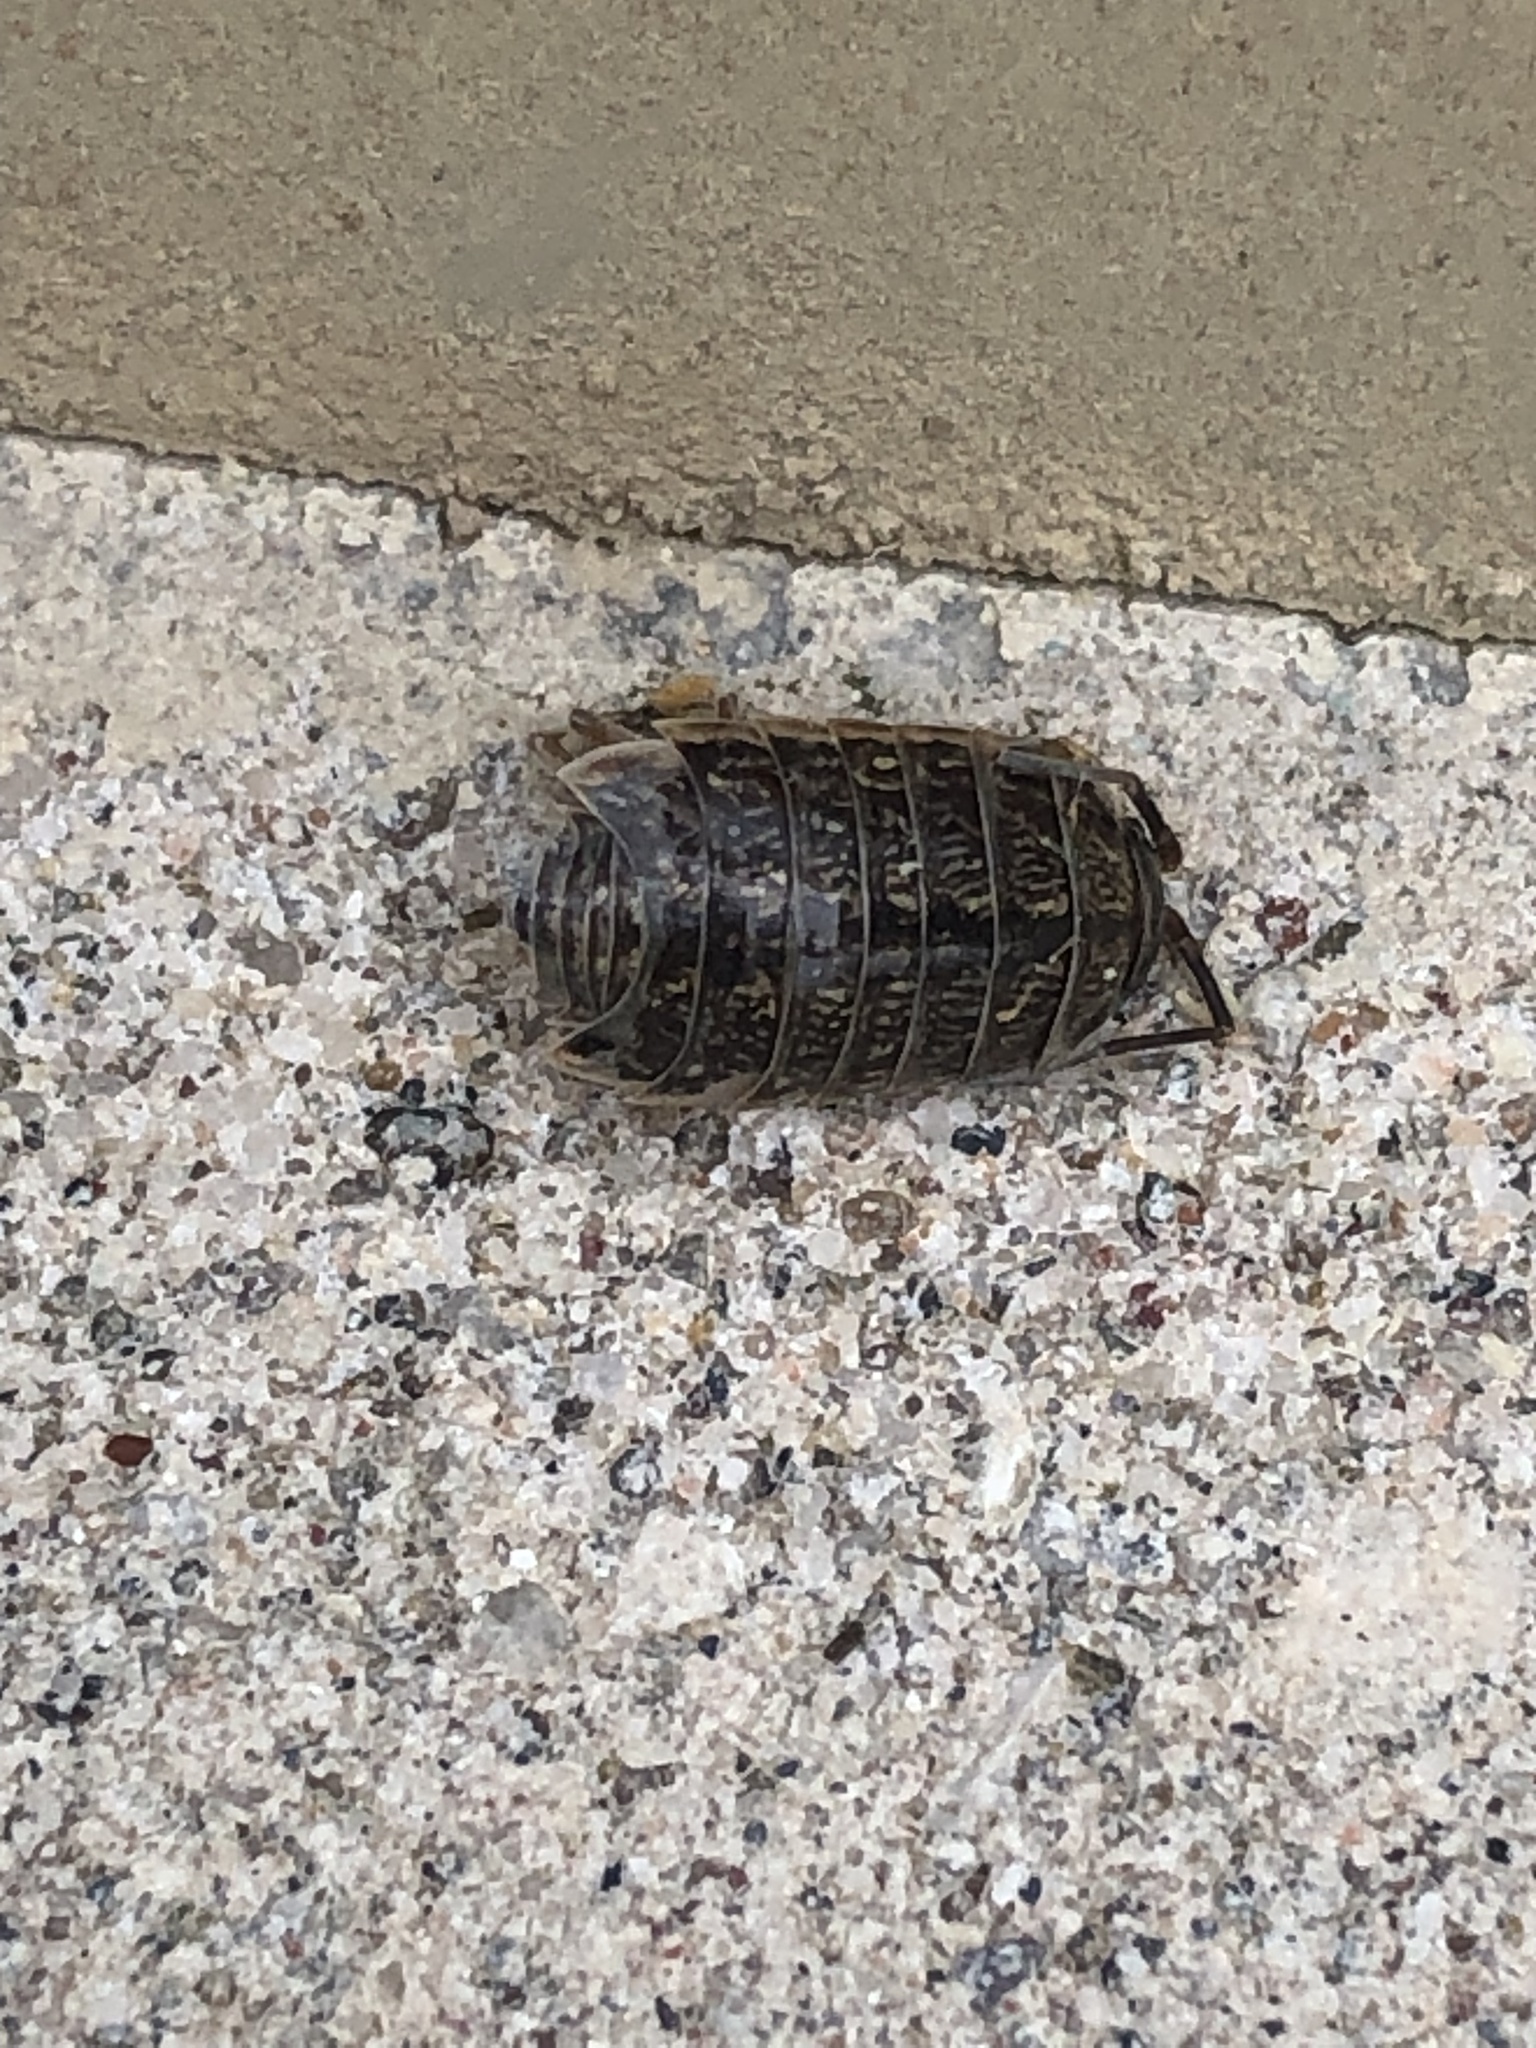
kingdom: Animalia
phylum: Arthropoda
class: Malacostraca
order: Isopoda
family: Philosciidae
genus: Philoscia
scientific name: Philoscia muscorum
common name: Common striped woodlouse
